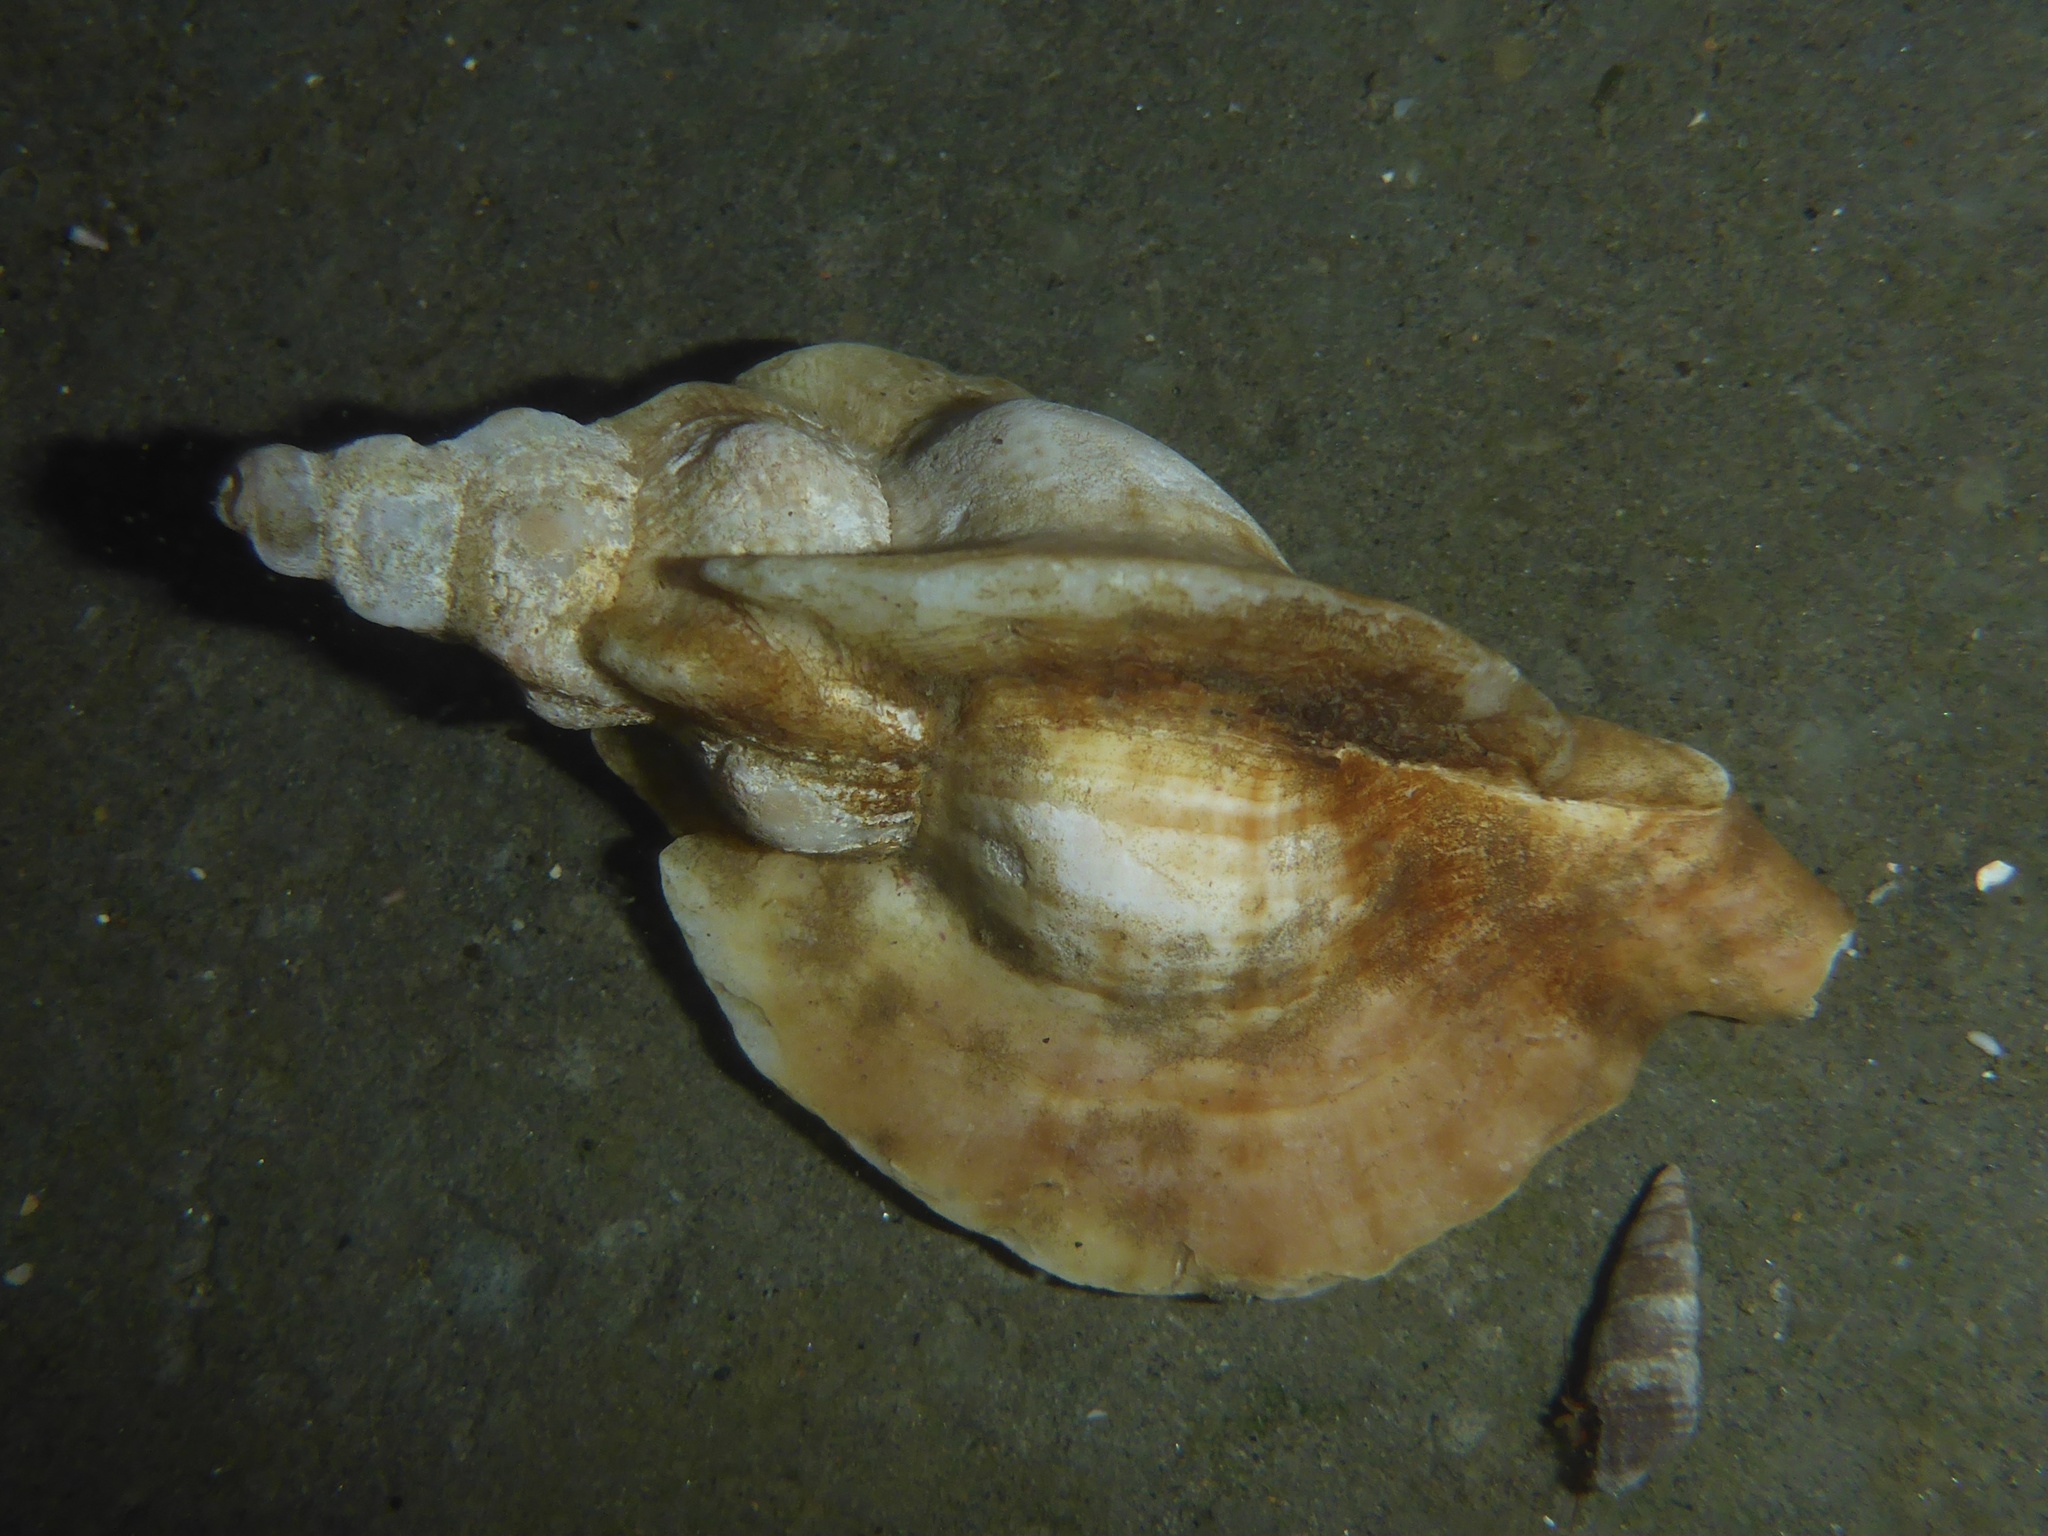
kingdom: Animalia
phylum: Mollusca
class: Gastropoda
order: Neogastropoda
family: Muricidae
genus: Ceratostoma
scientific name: Ceratostoma foliatum
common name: Foliate thorn purpura
